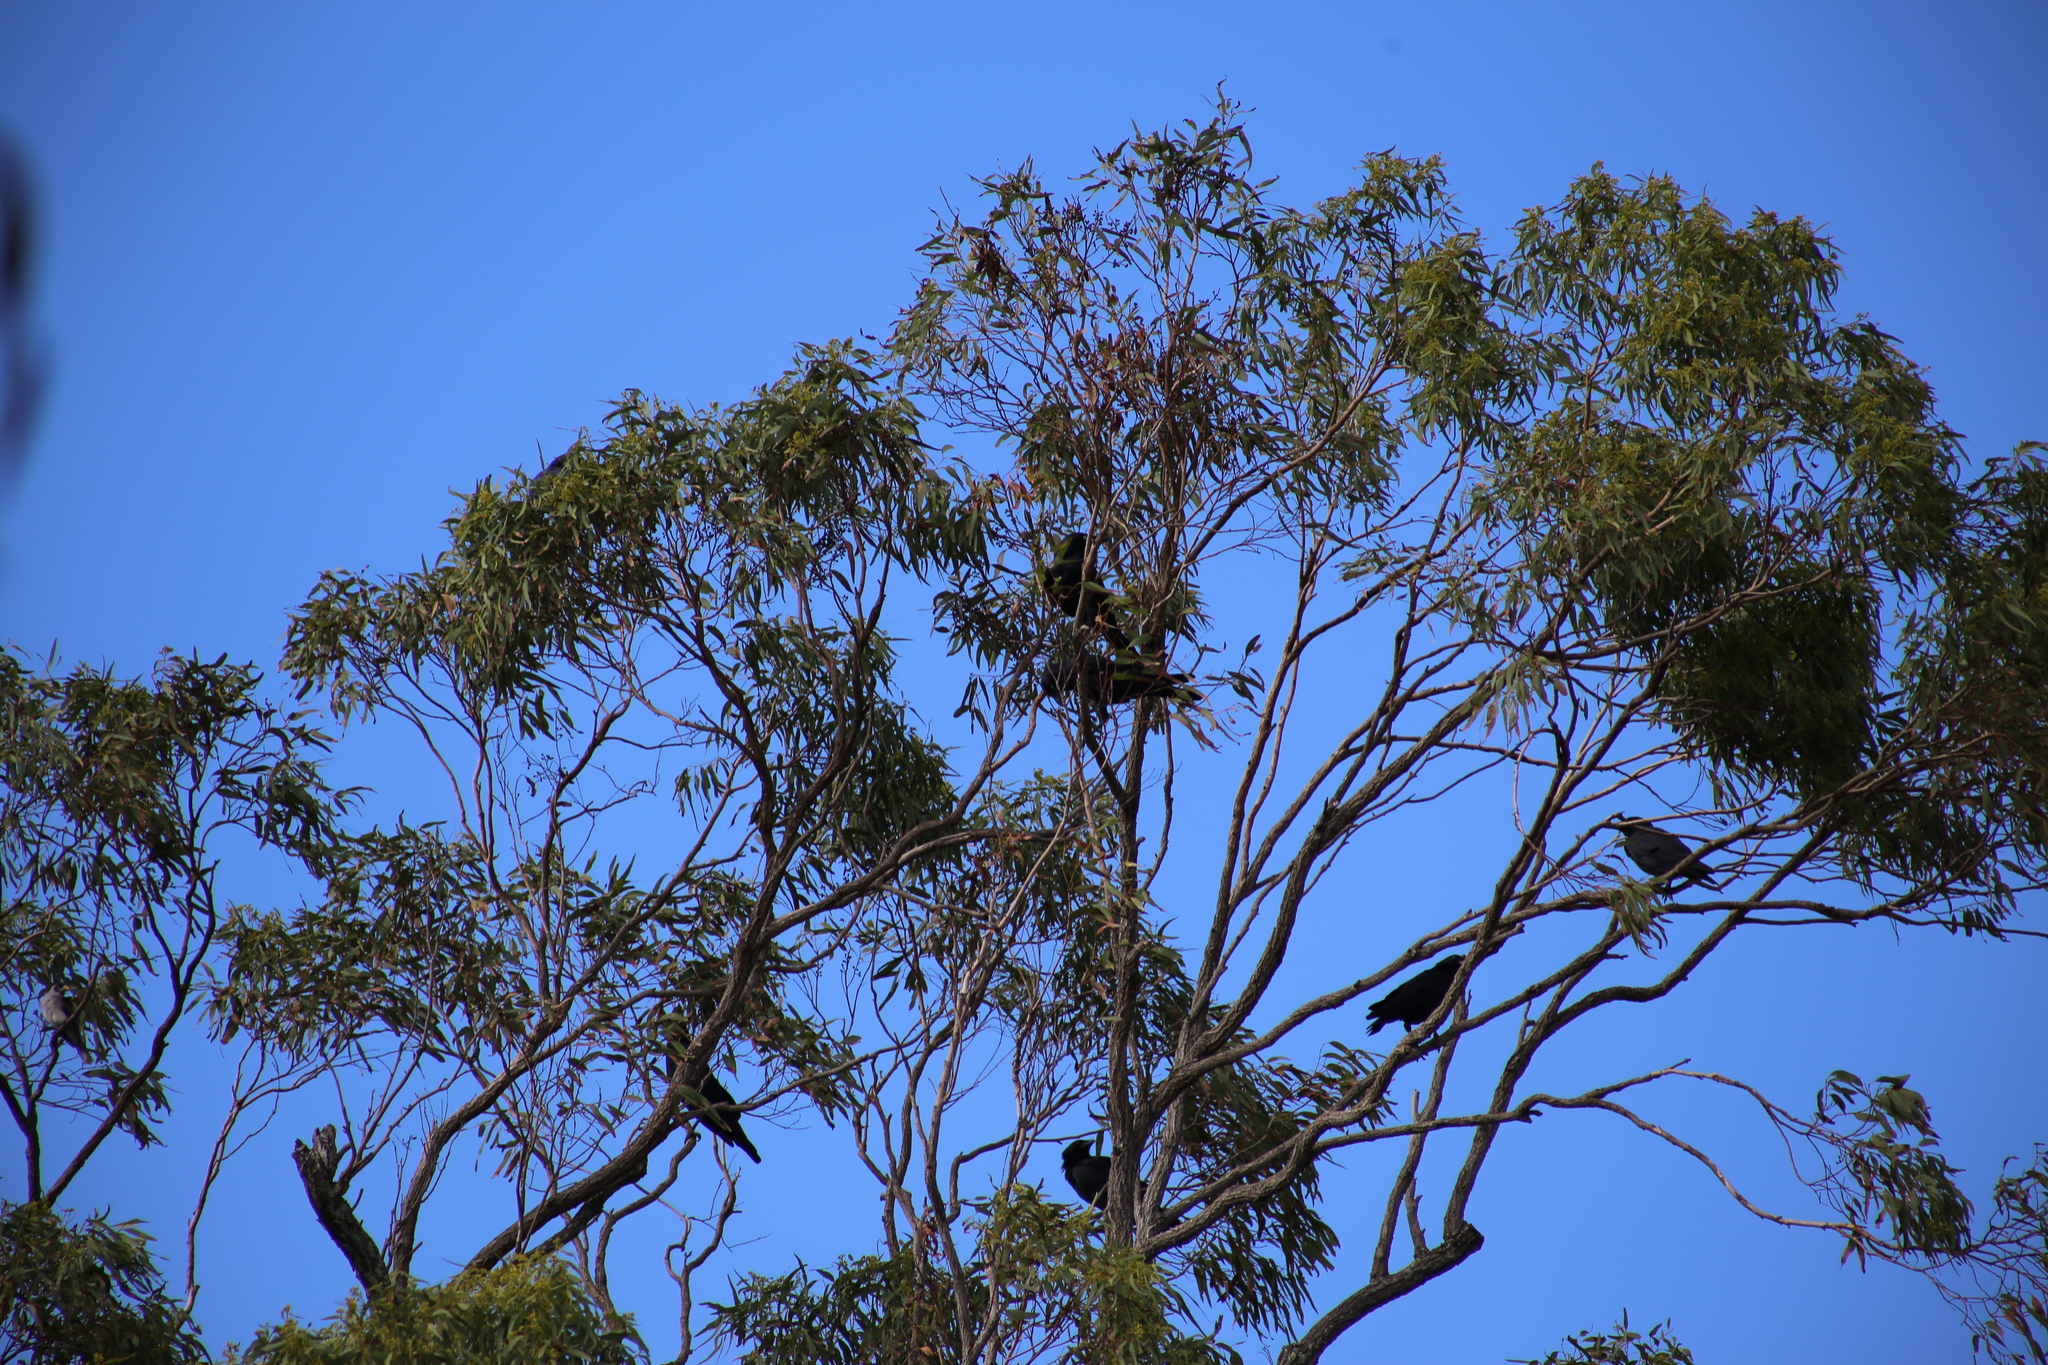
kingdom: Animalia
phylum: Chordata
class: Aves
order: Passeriformes
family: Corvidae
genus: Corvus
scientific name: Corvus orru
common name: Torresian crow
